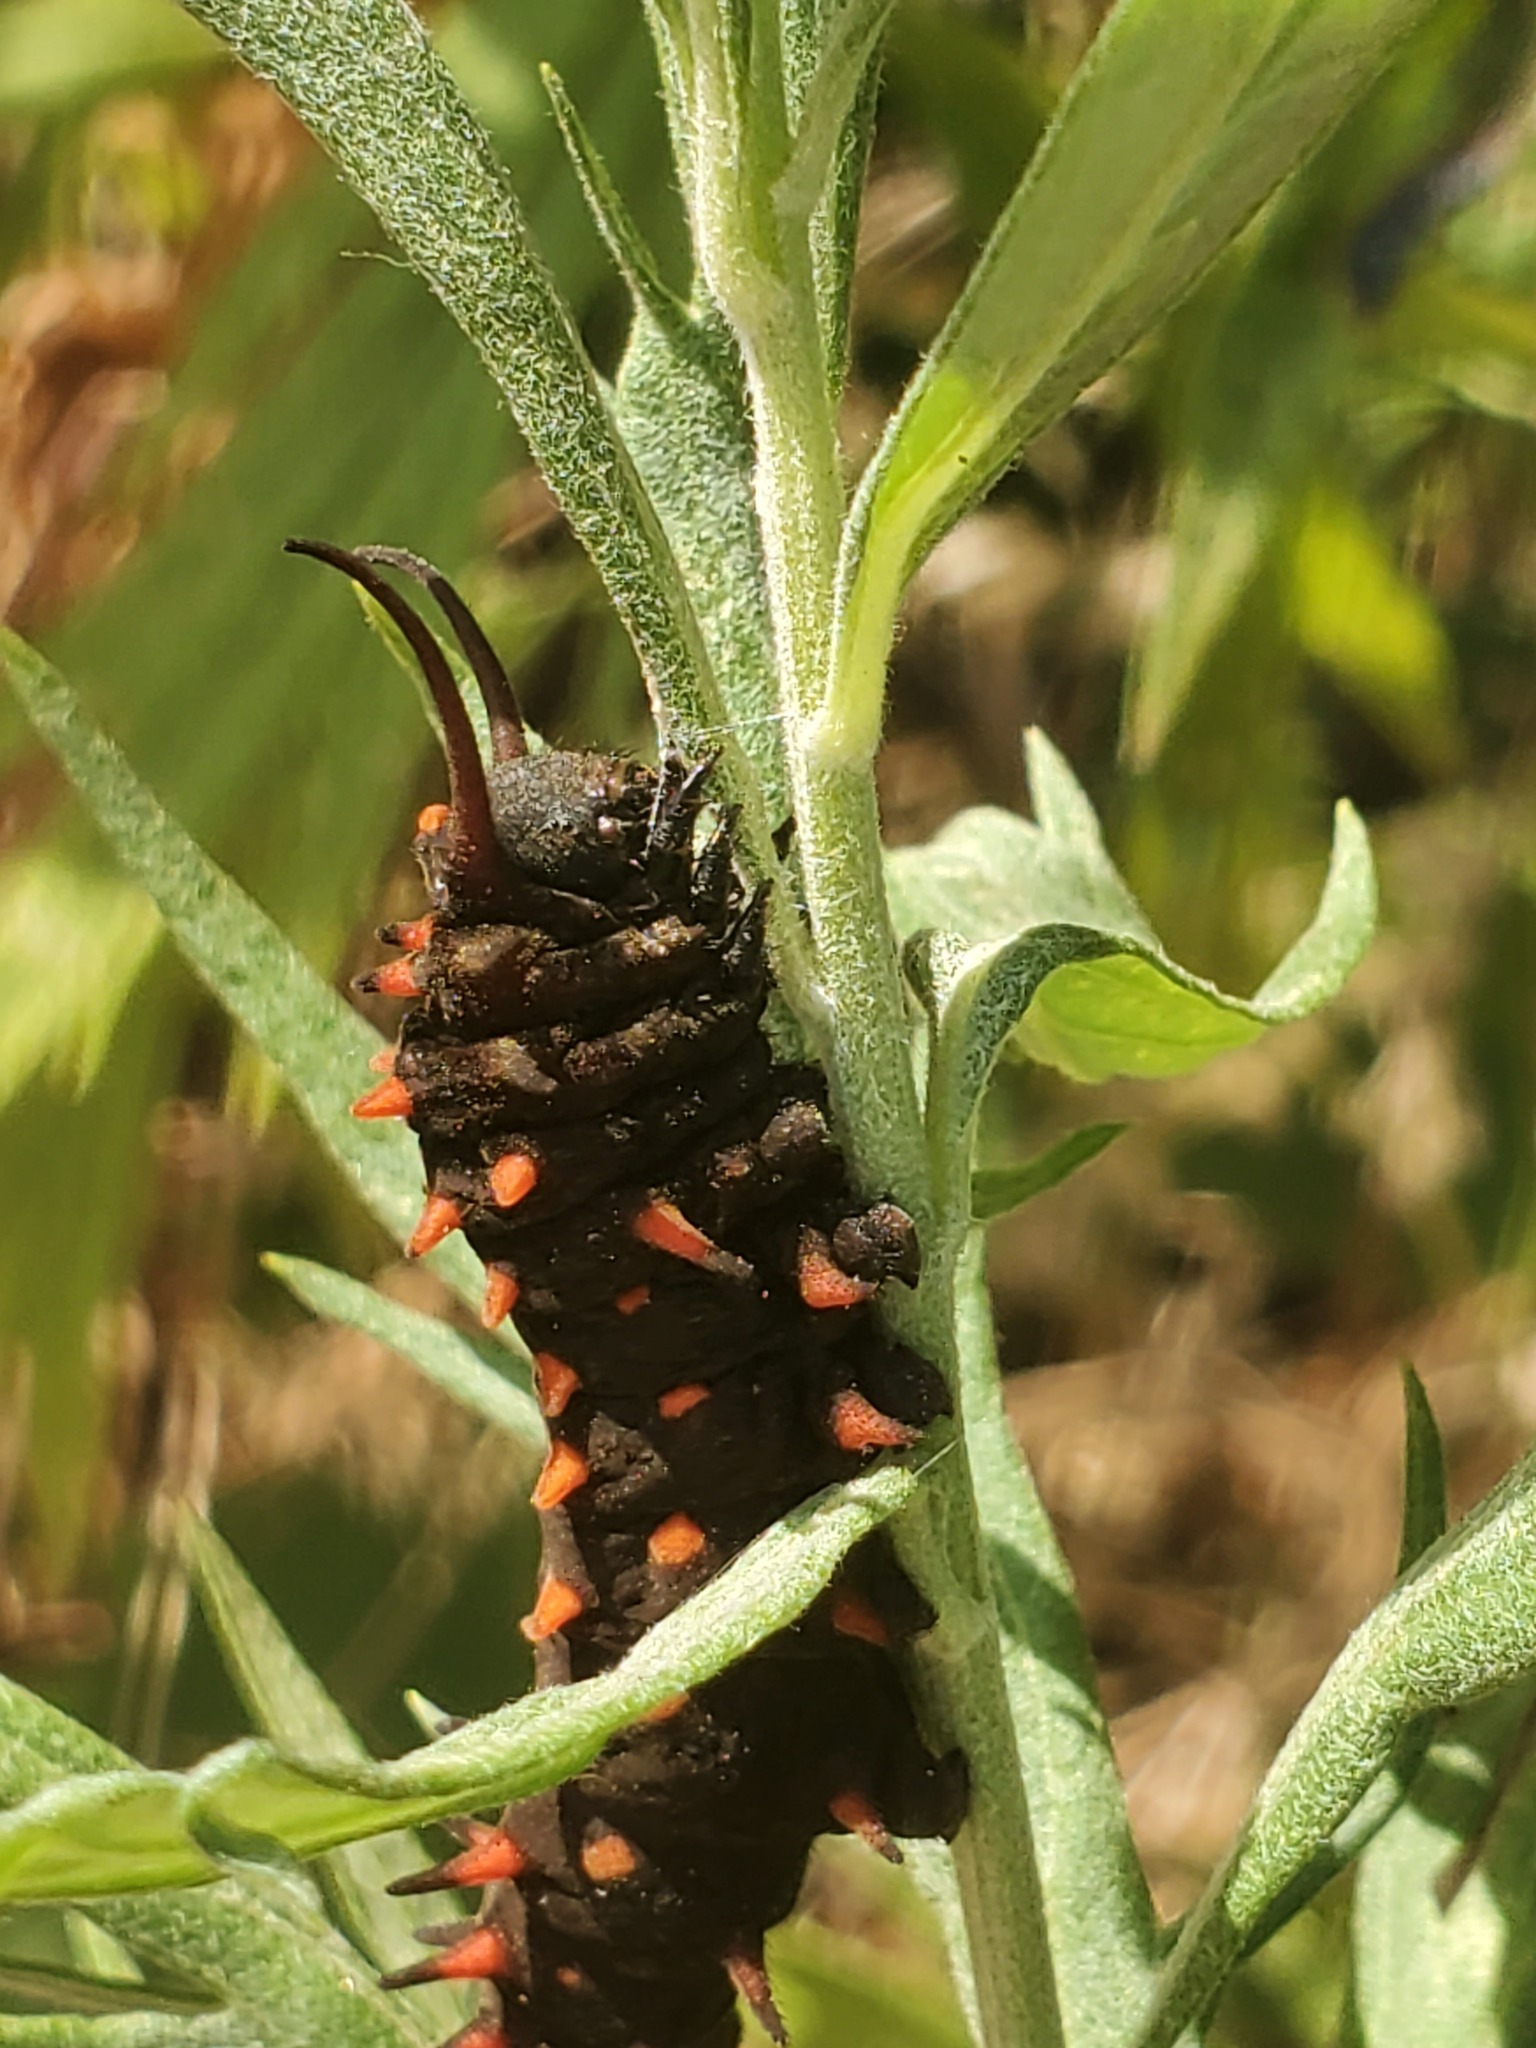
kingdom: Animalia
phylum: Arthropoda
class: Insecta
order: Lepidoptera
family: Papilionidae
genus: Battus
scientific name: Battus philenor
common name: Pipevine swallowtail
